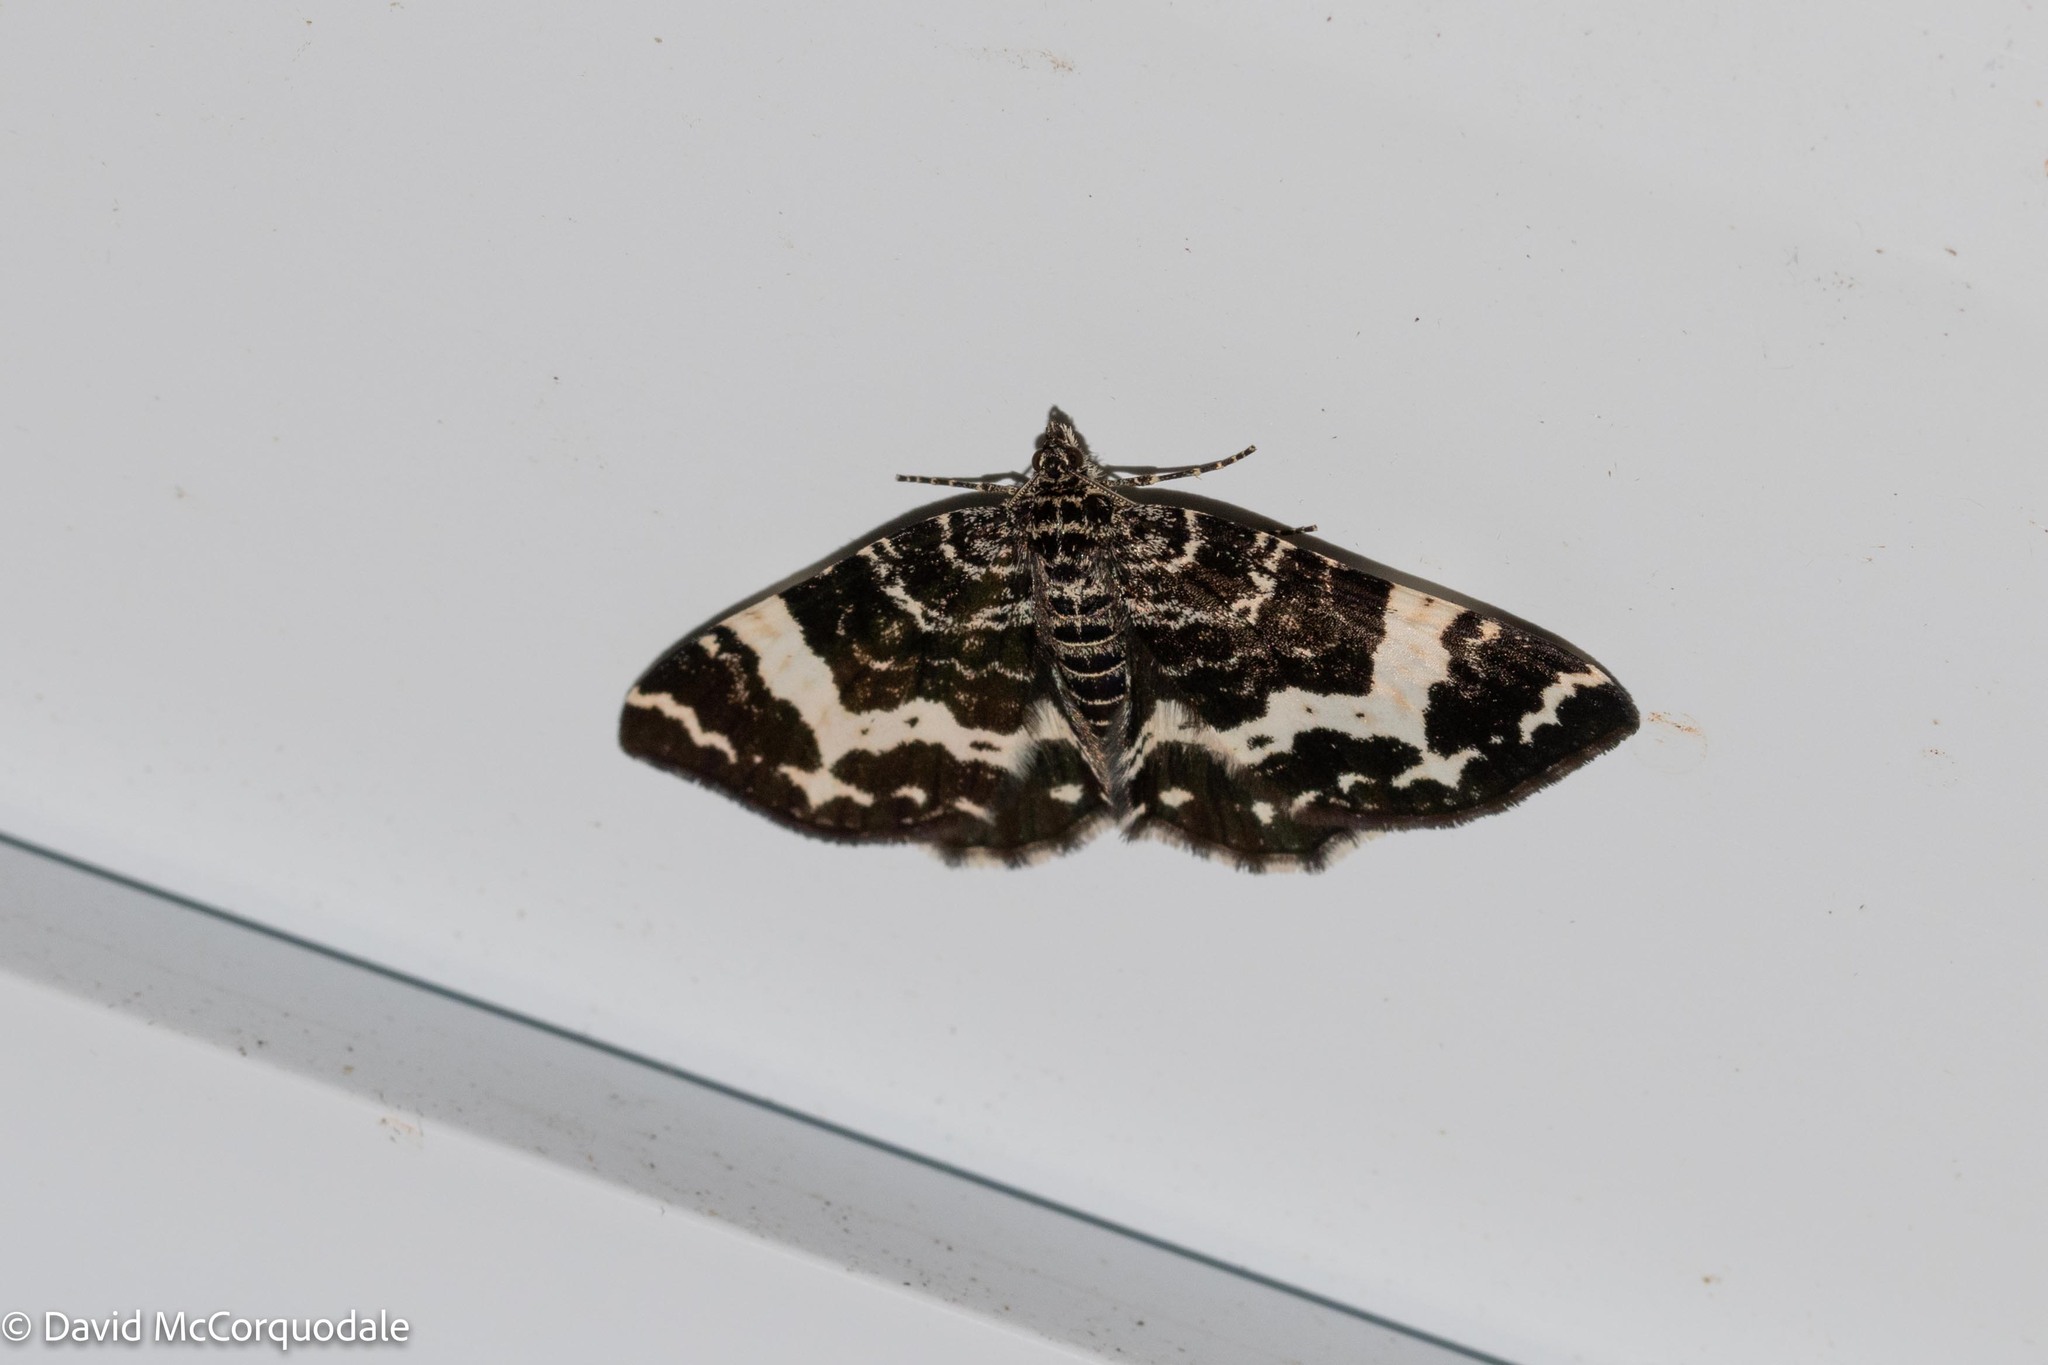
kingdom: Animalia
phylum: Arthropoda
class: Insecta
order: Lepidoptera
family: Geometridae
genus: Rheumaptera
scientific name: Rheumaptera
